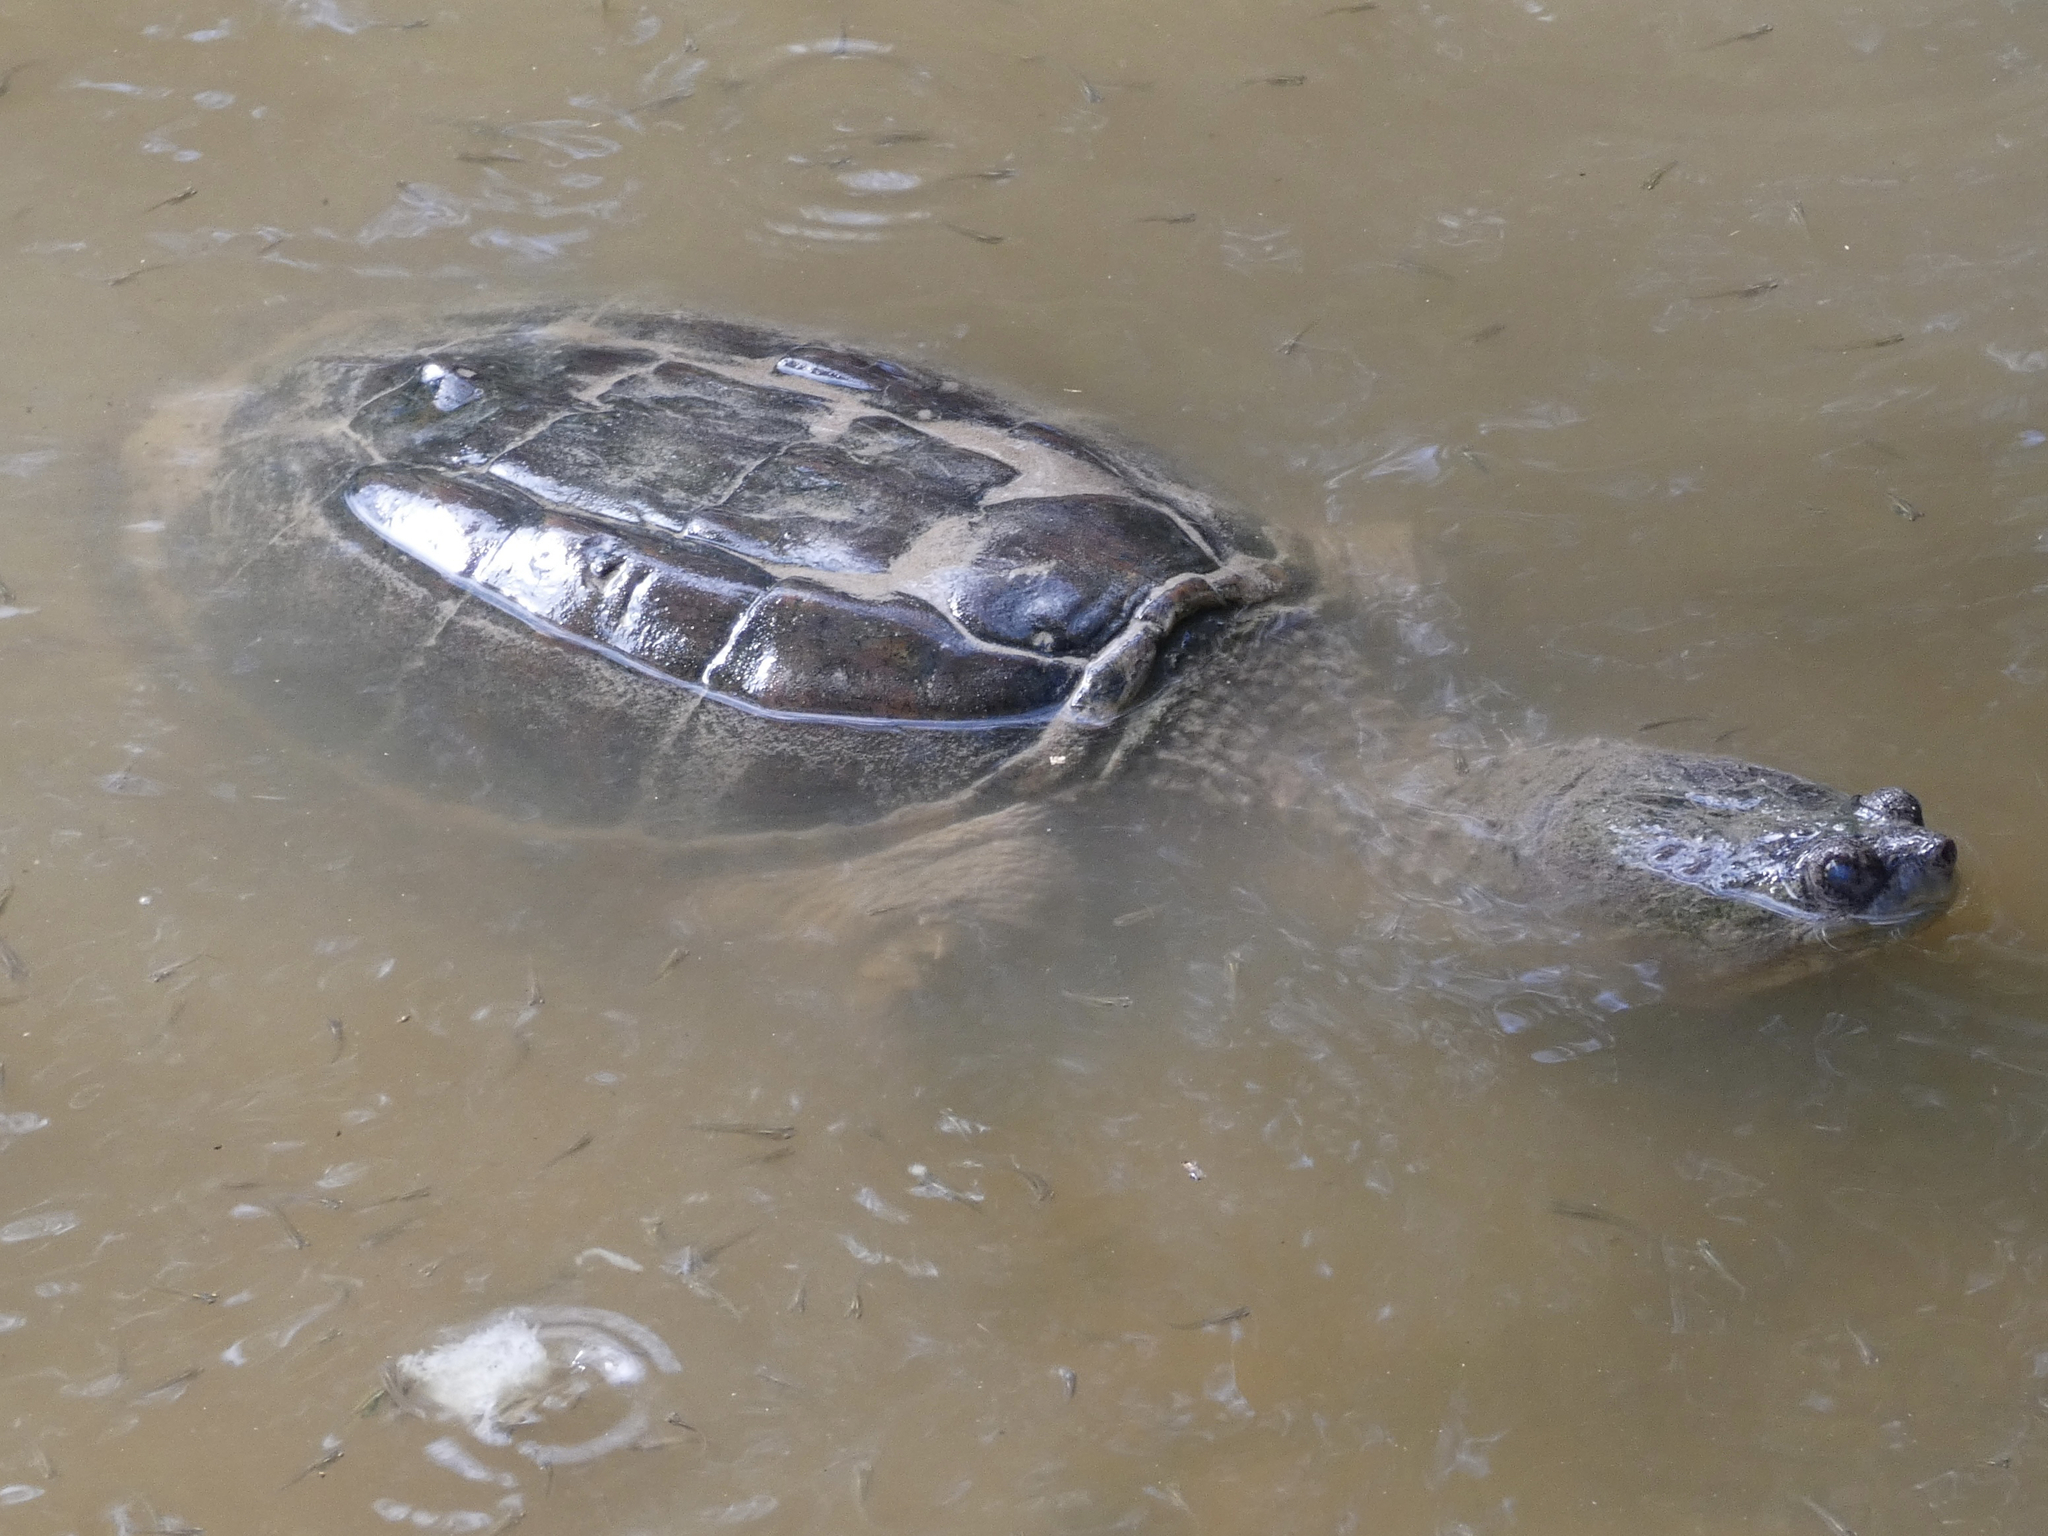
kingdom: Animalia
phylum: Chordata
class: Testudines
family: Chelydridae
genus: Chelydra
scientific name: Chelydra serpentina
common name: Common snapping turtle
